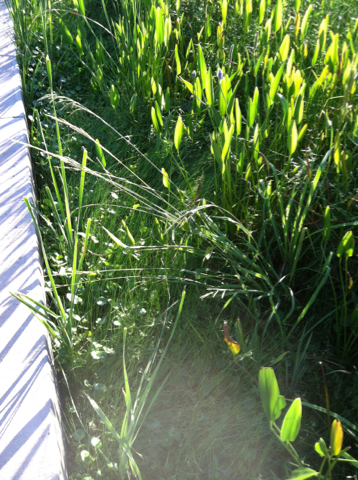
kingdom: Plantae
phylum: Tracheophyta
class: Liliopsida
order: Poales
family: Poaceae
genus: Paspalum
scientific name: Paspalum urvillei
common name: Vasey's grass
